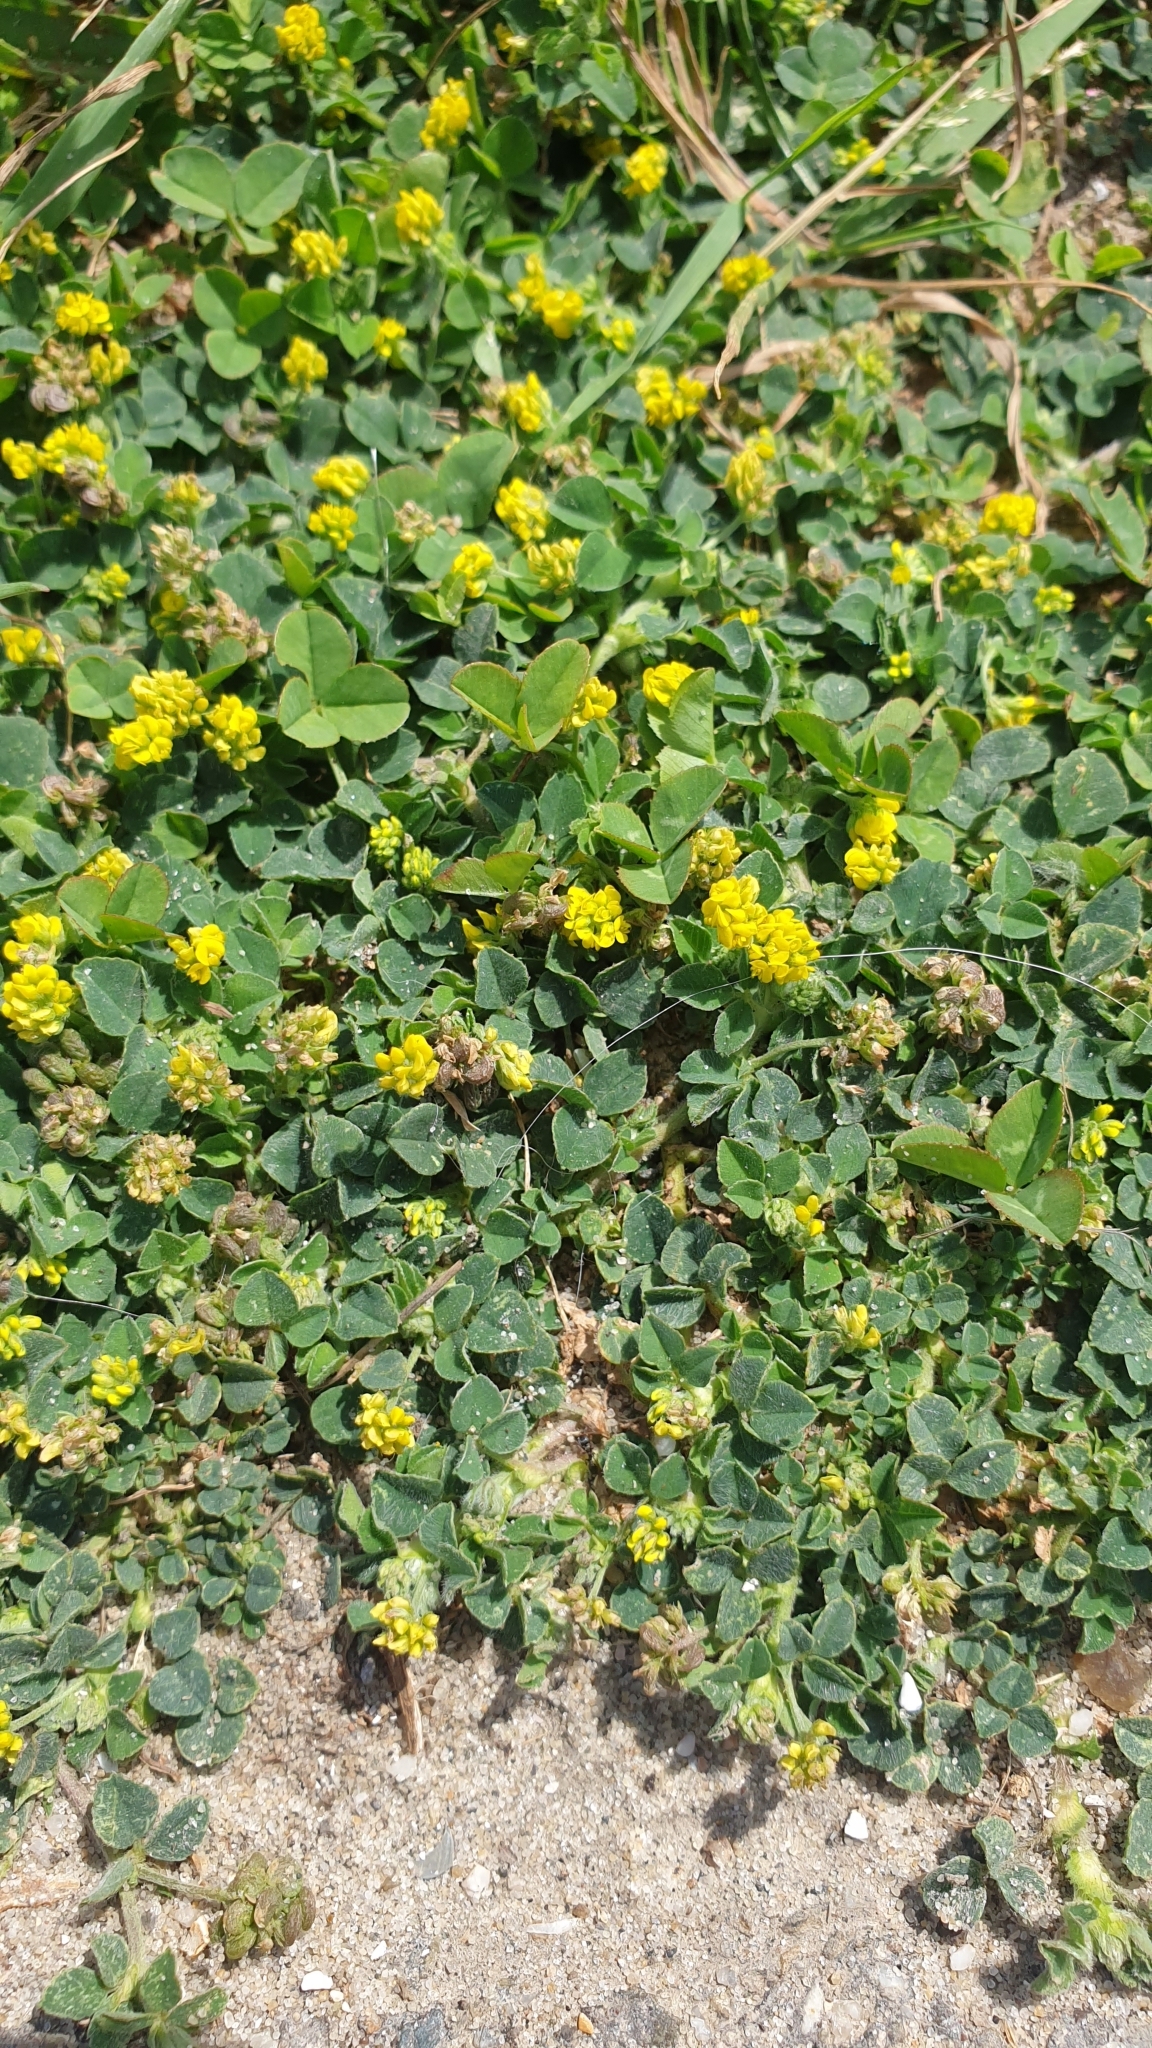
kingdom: Plantae
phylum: Tracheophyta
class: Magnoliopsida
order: Fabales
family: Fabaceae
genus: Medicago
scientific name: Medicago lupulina
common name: Black medick
